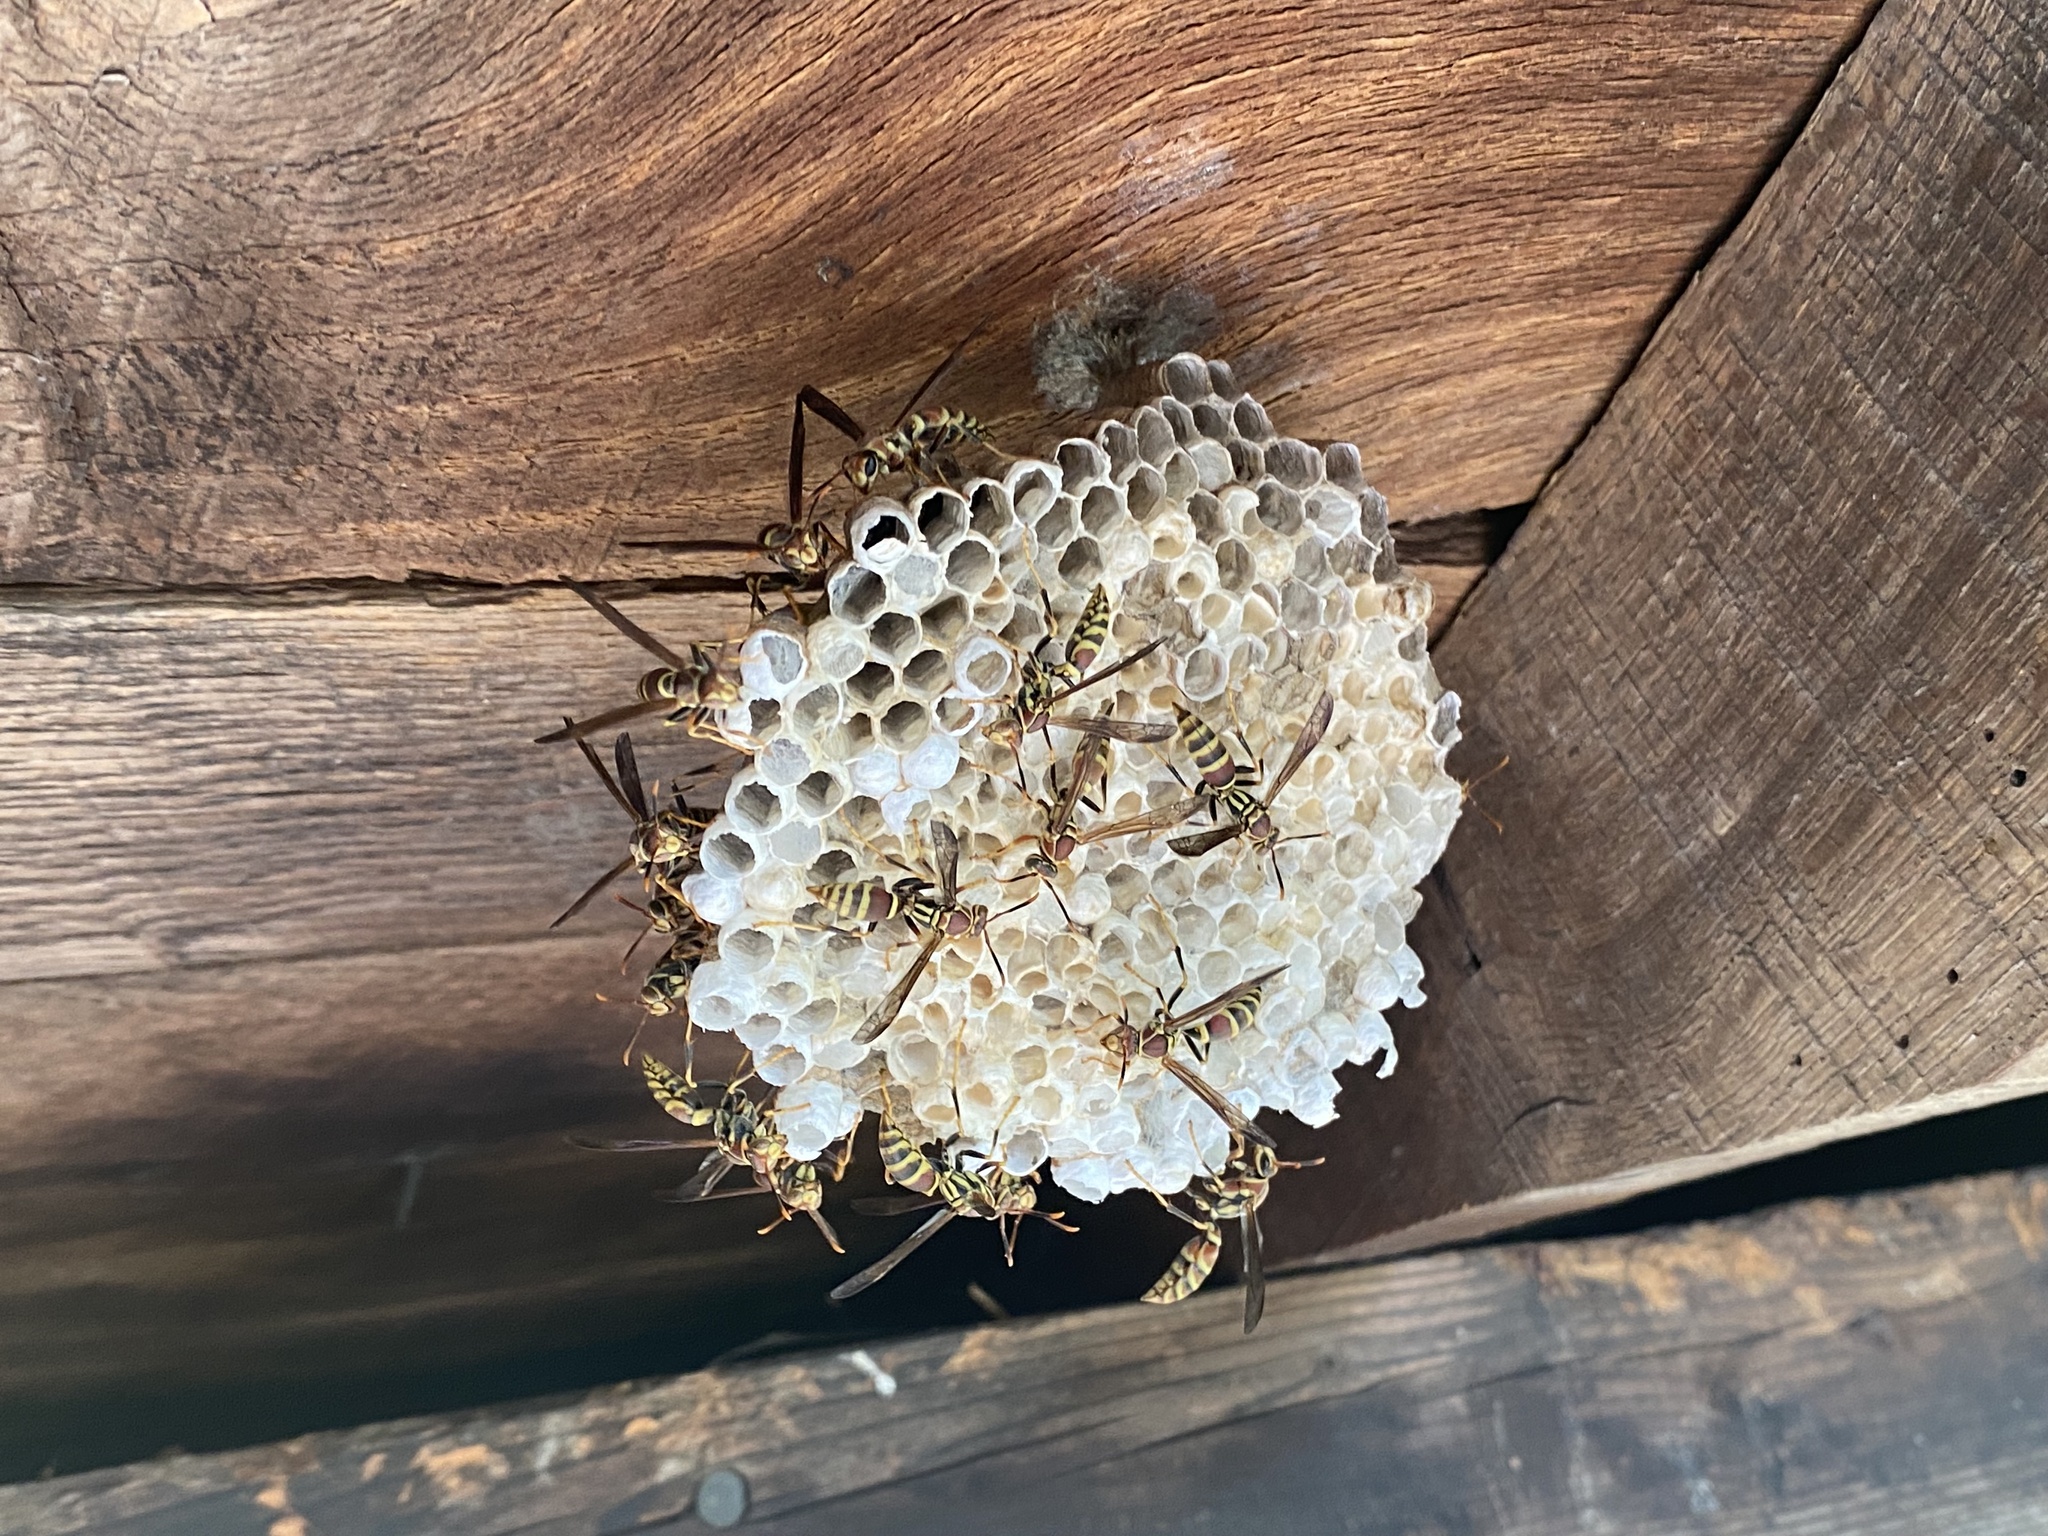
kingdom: Animalia
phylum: Arthropoda
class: Insecta
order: Hymenoptera
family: Eumenidae
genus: Polistes
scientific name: Polistes exclamans
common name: Paper wasp
